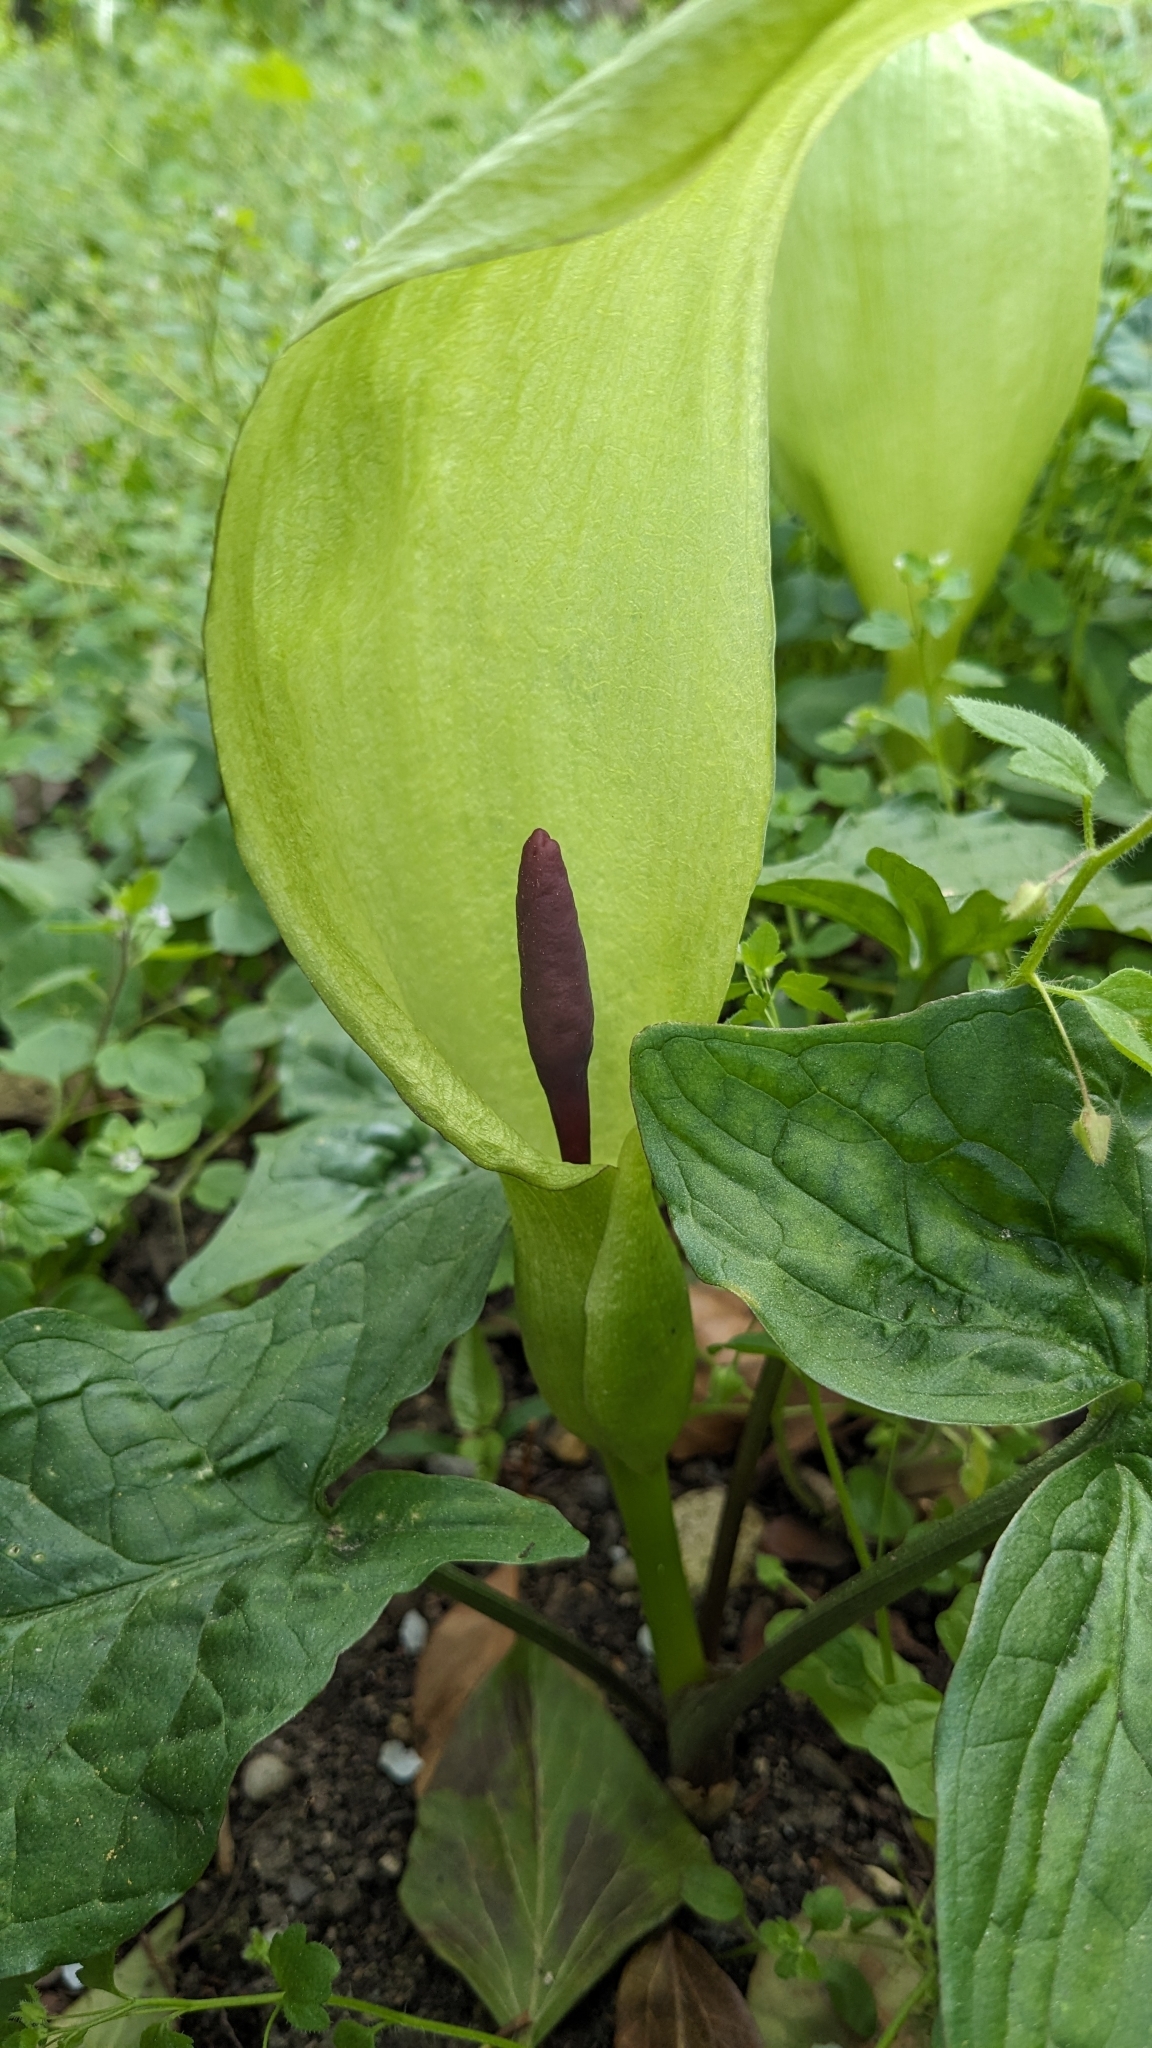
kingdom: Plantae
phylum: Tracheophyta
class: Liliopsida
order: Alismatales
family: Araceae
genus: Arum
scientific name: Arum maculatum
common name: Lords-and-ladies
